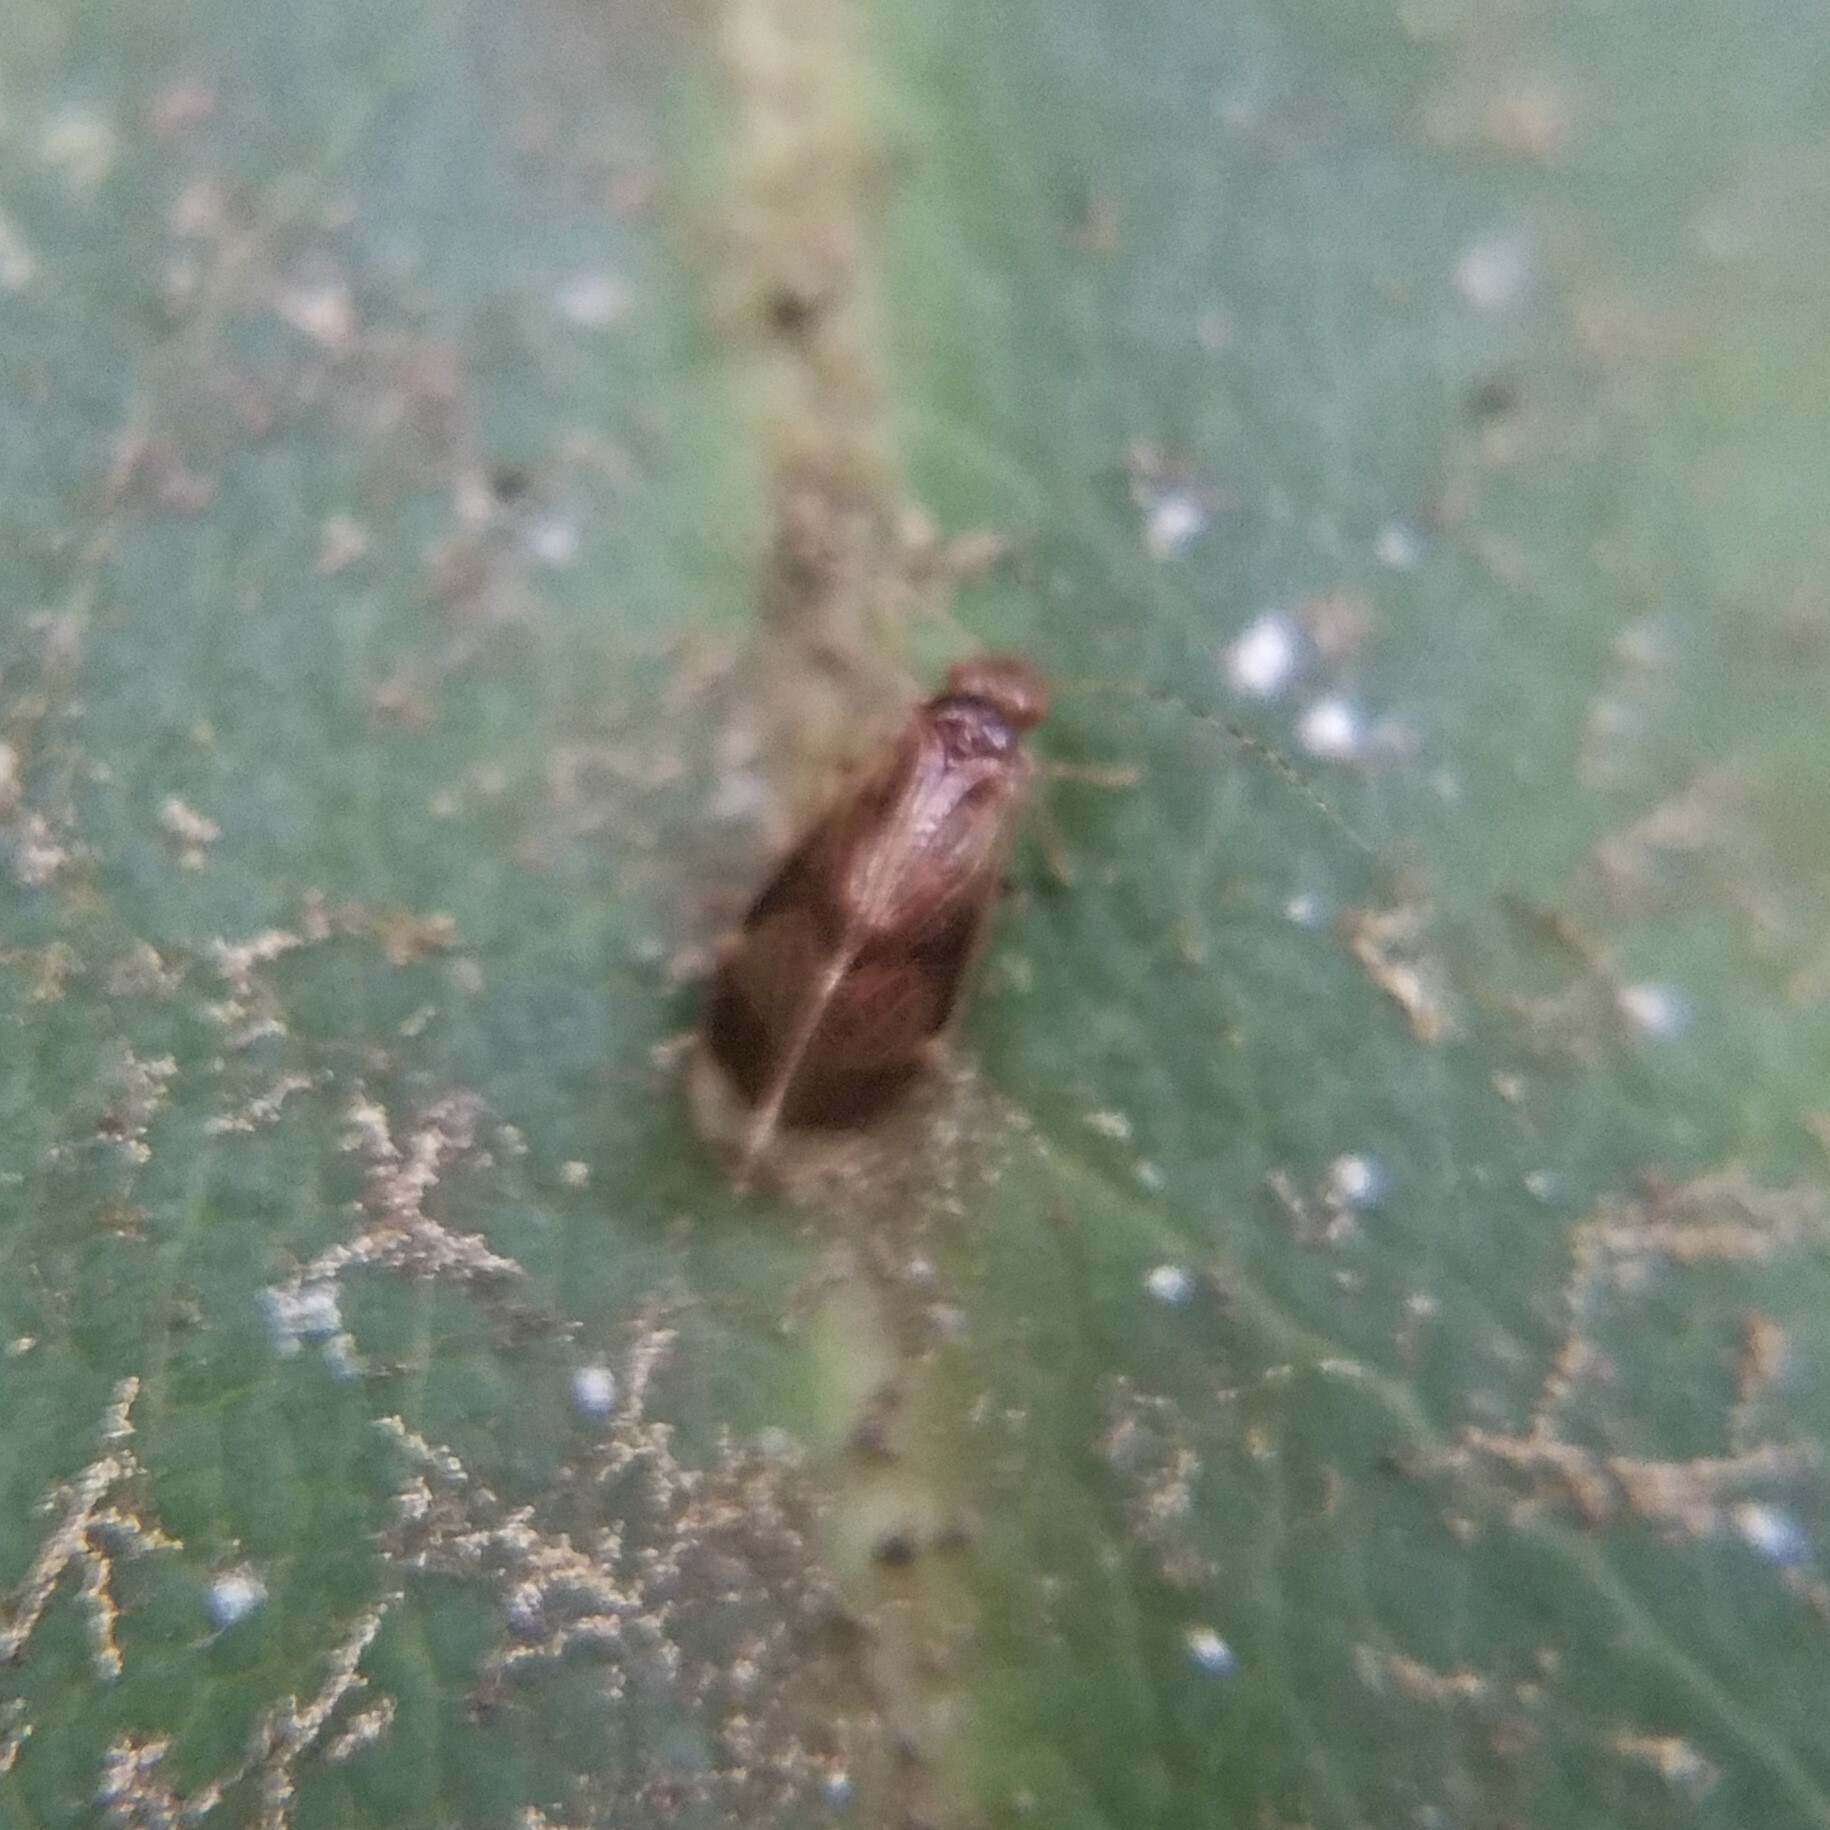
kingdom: Animalia
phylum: Arthropoda
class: Insecta
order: Psocodea
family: Amphipsocidae
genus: Polypsocus
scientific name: Polypsocus corruptus
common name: Corrupt barklouse
